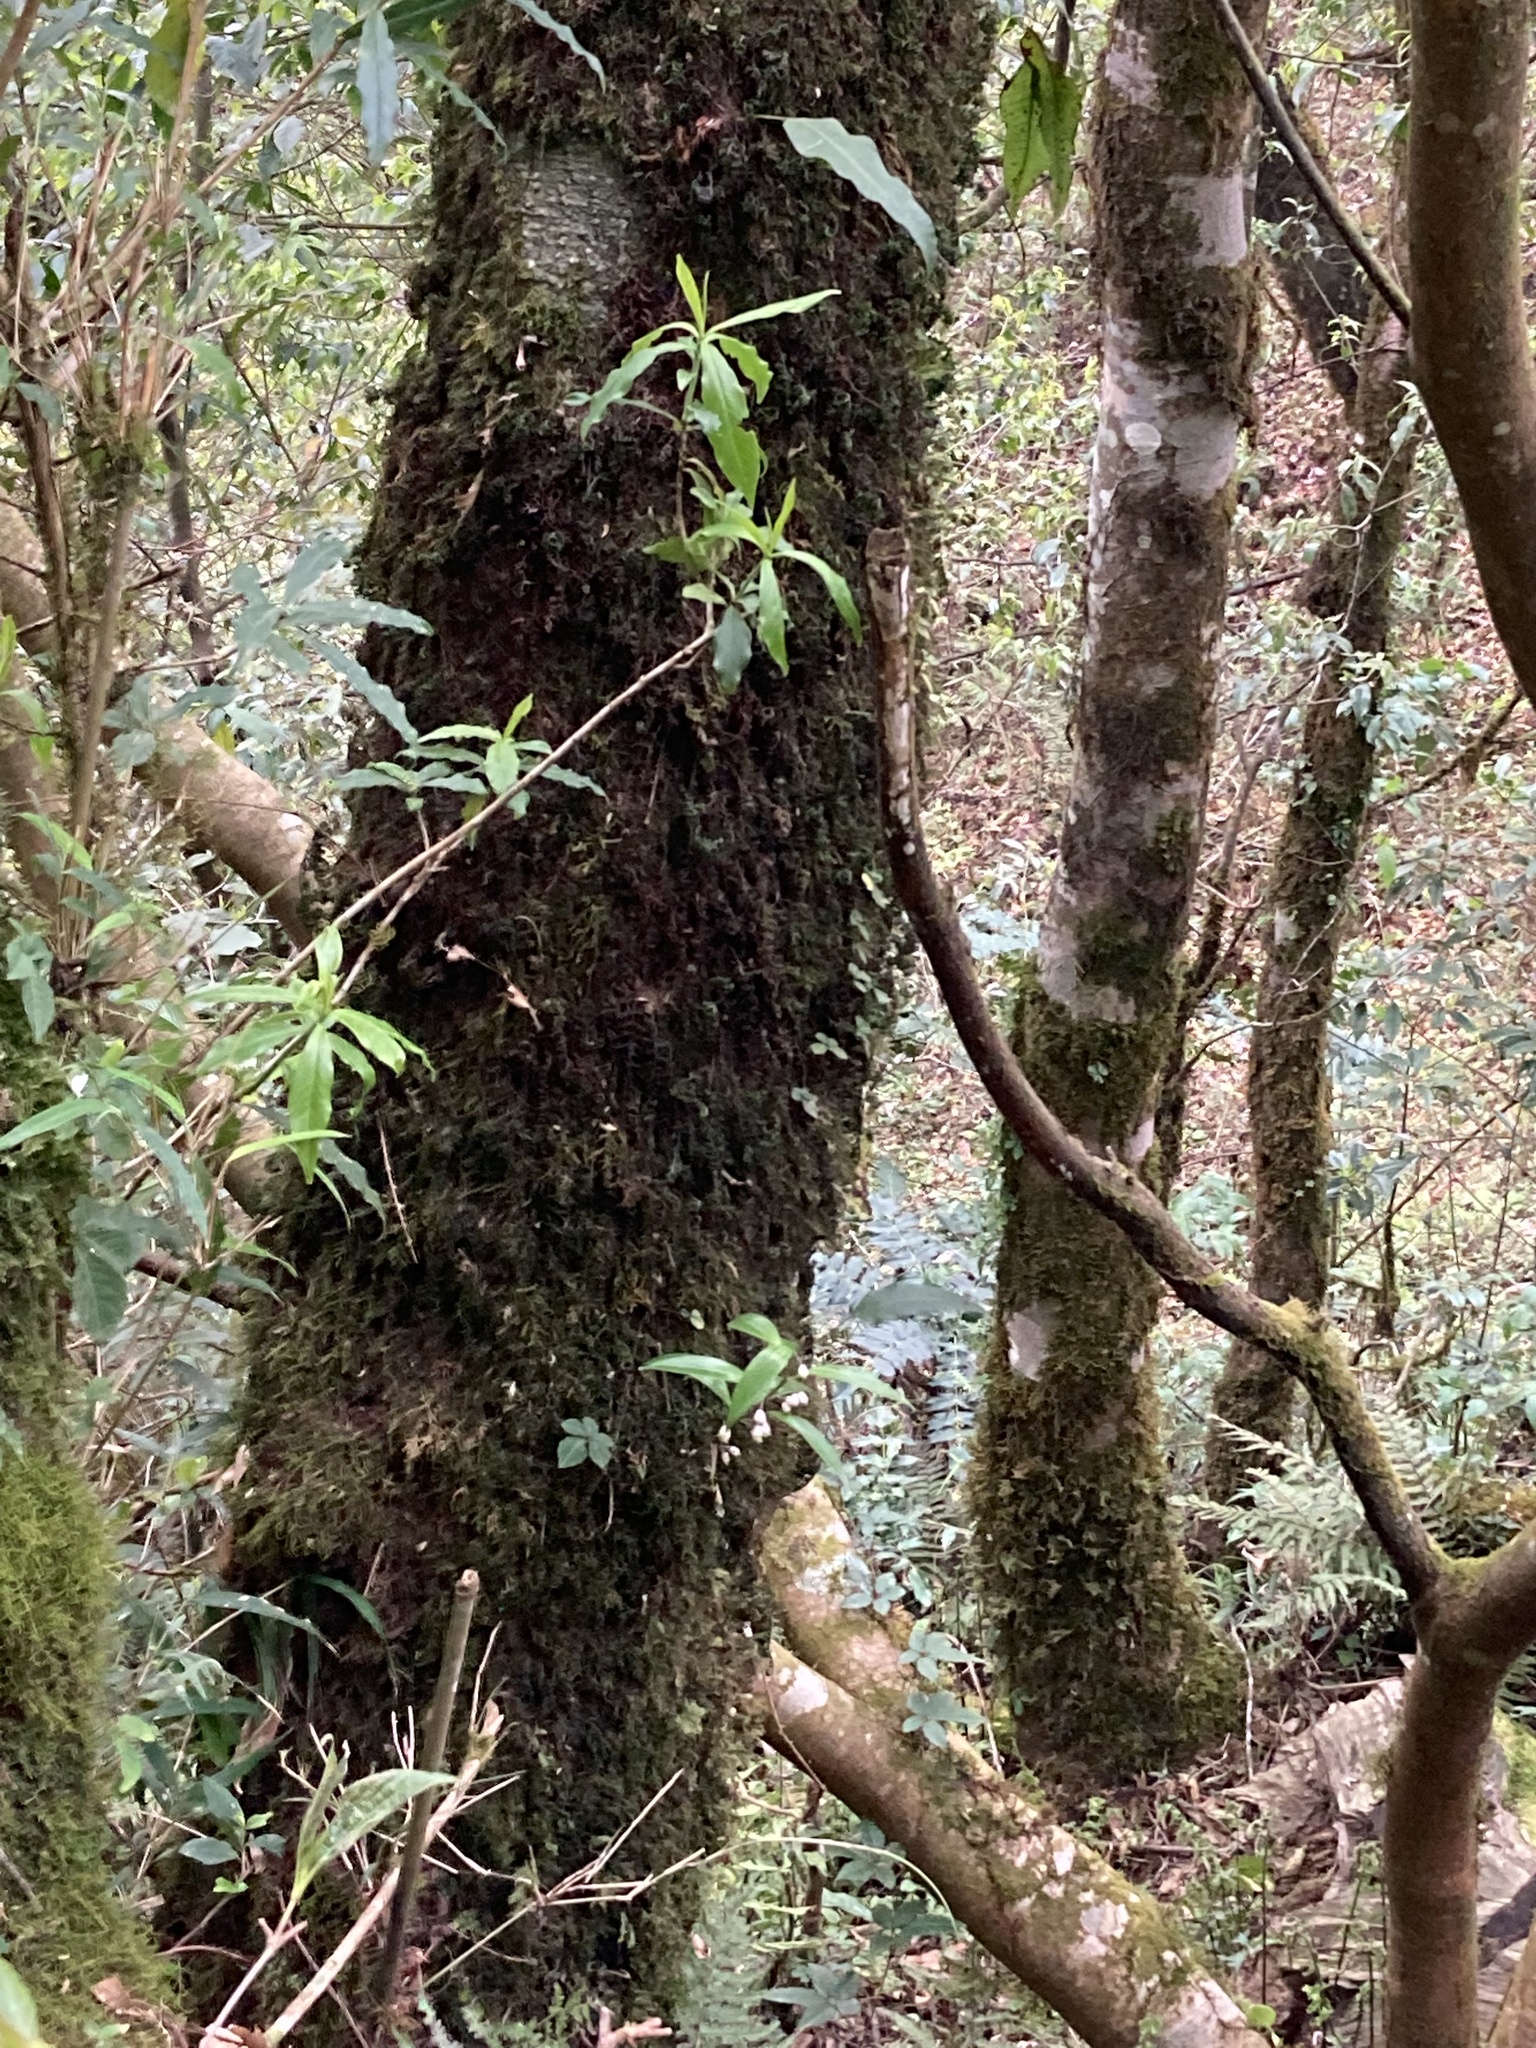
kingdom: Plantae
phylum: Tracheophyta
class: Liliopsida
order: Asparagales
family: Asparagaceae
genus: Polygonatum
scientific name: Polygonatum punctatum
